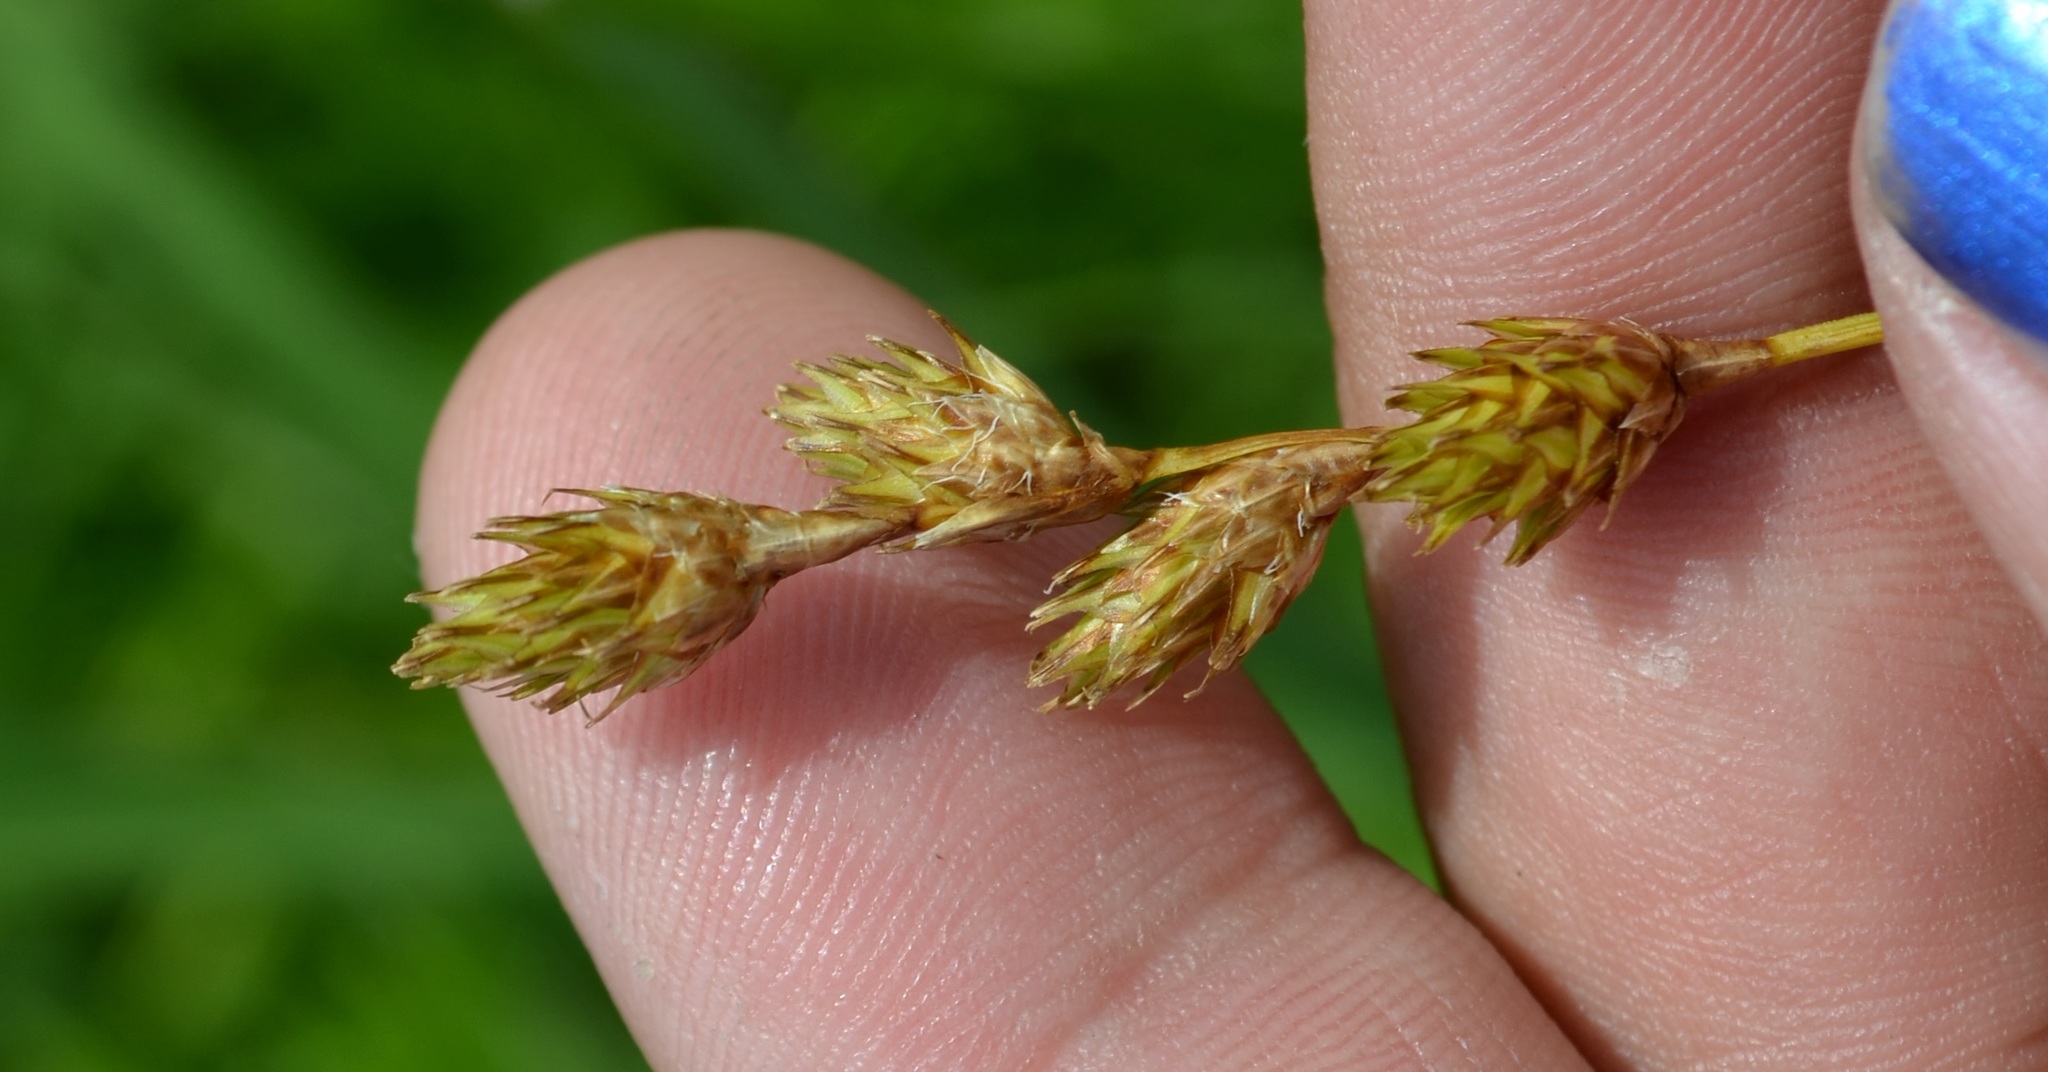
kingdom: Plantae
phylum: Tracheophyta
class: Liliopsida
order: Poales
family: Cyperaceae
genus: Carex
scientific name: Carex bicknellii
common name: Bicknell's sedge
